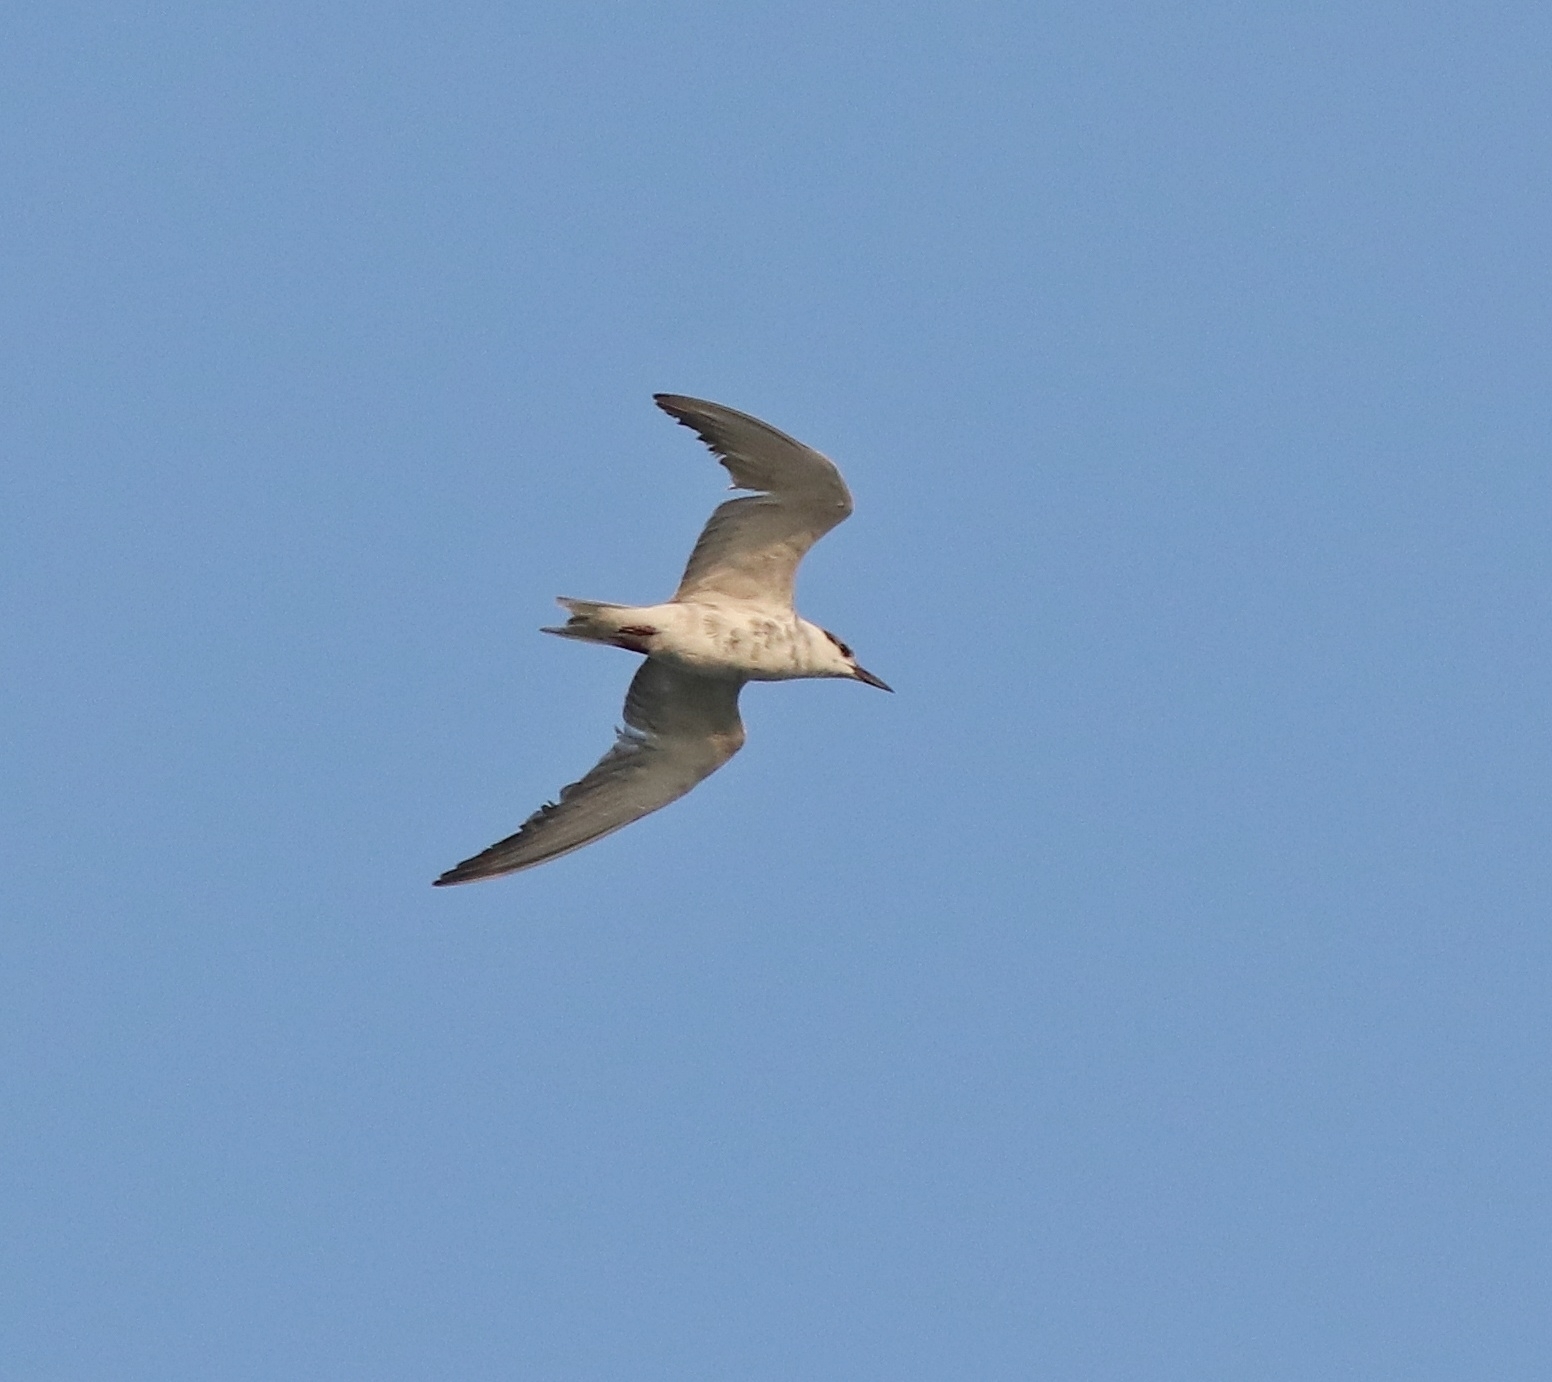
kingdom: Animalia
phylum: Chordata
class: Aves
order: Charadriiformes
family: Laridae
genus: Chlidonias
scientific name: Chlidonias hybrida
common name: Whiskered tern
